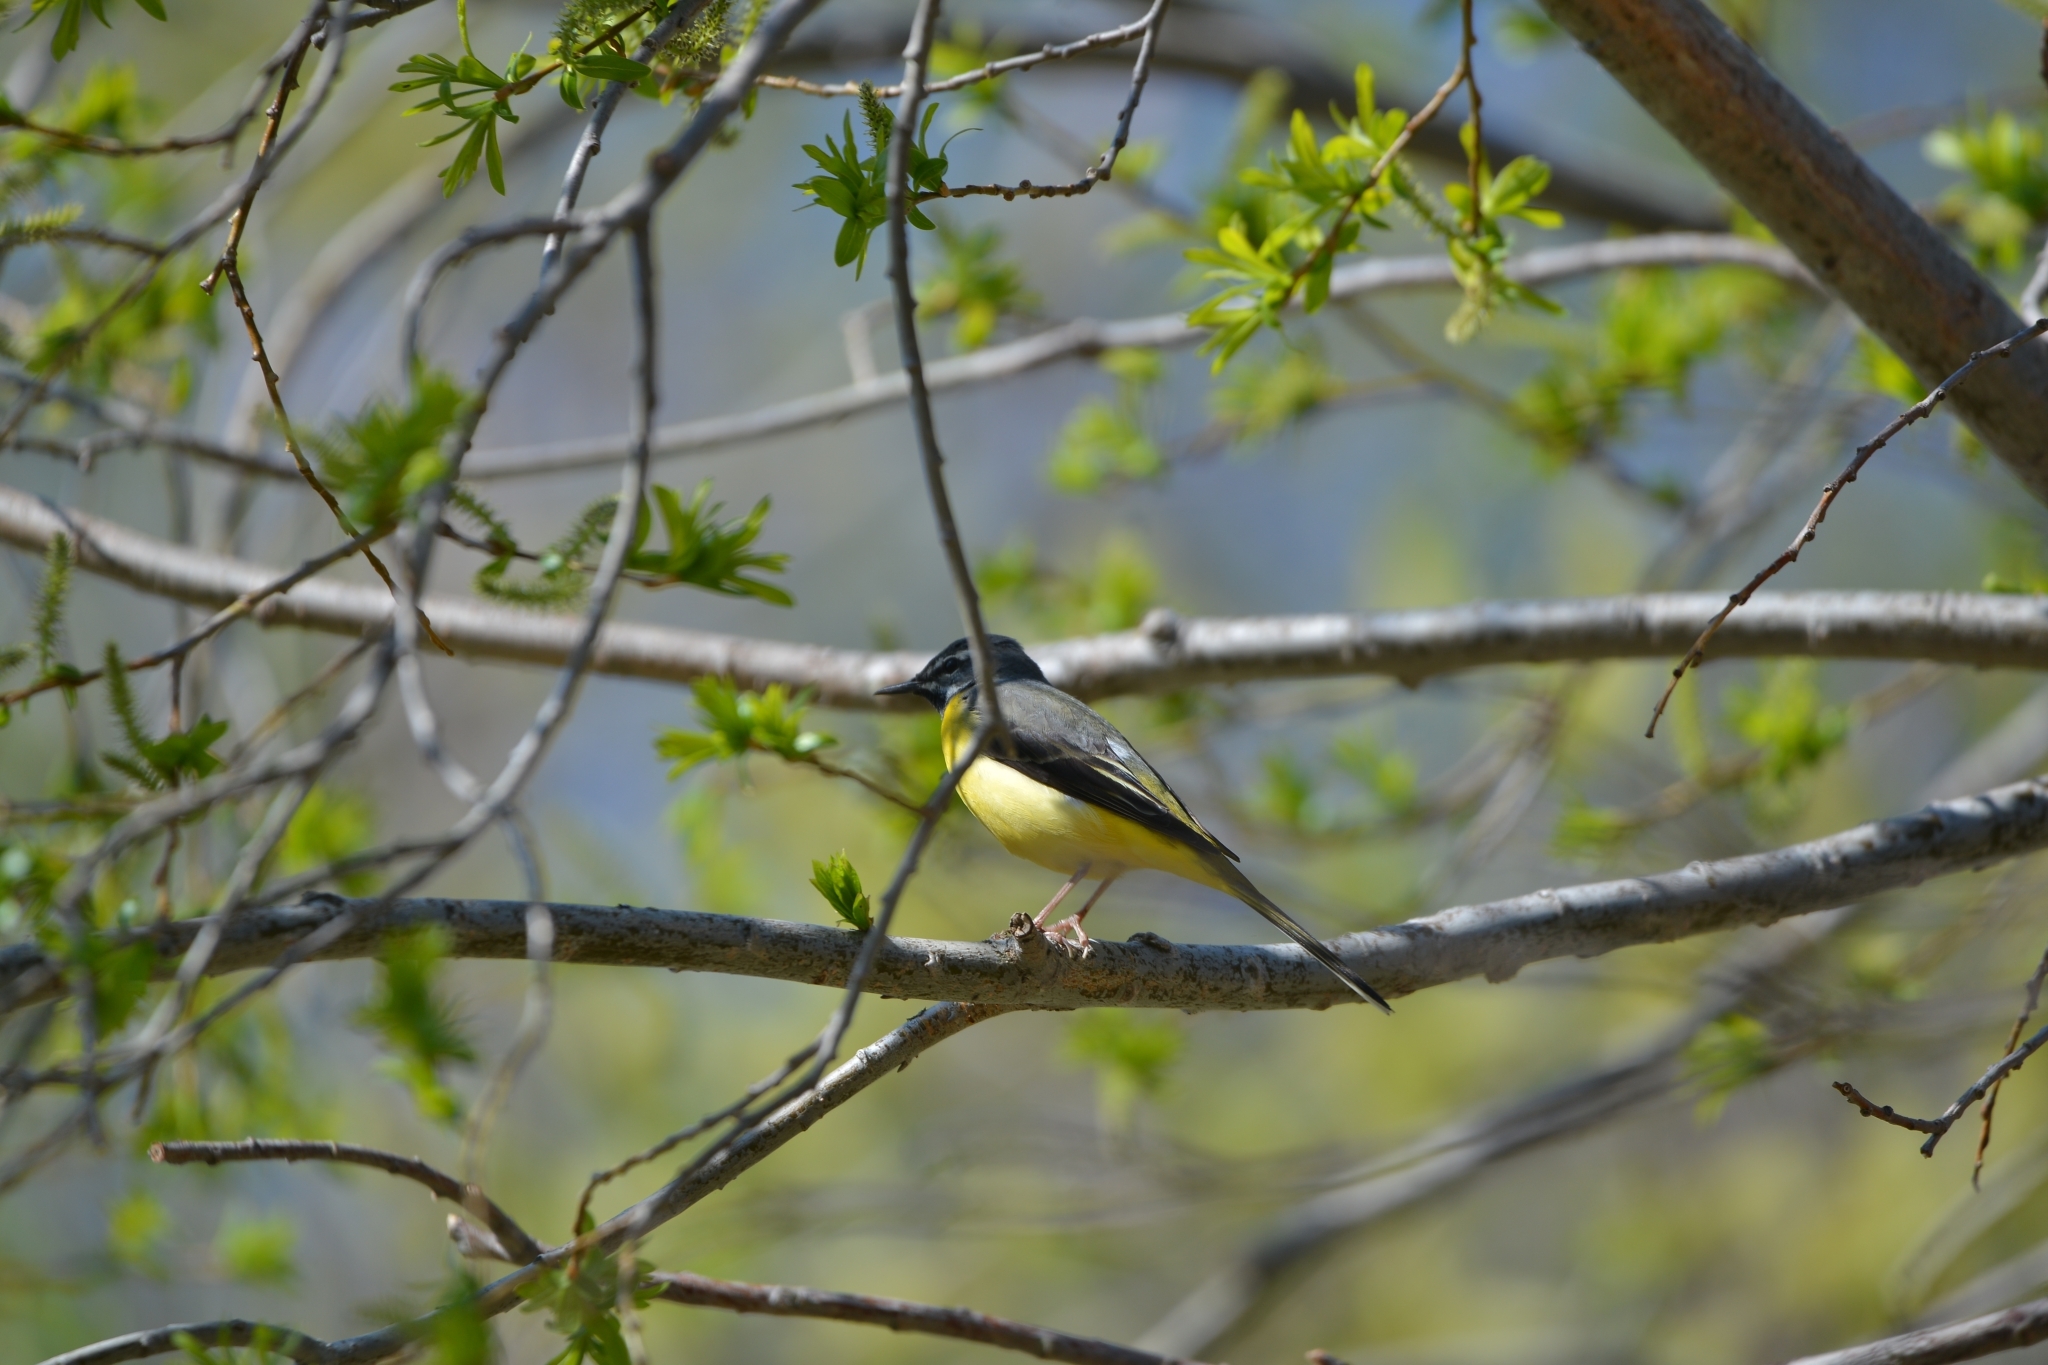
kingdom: Animalia
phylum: Chordata
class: Aves
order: Passeriformes
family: Motacillidae
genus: Motacilla
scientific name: Motacilla cinerea
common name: Grey wagtail
